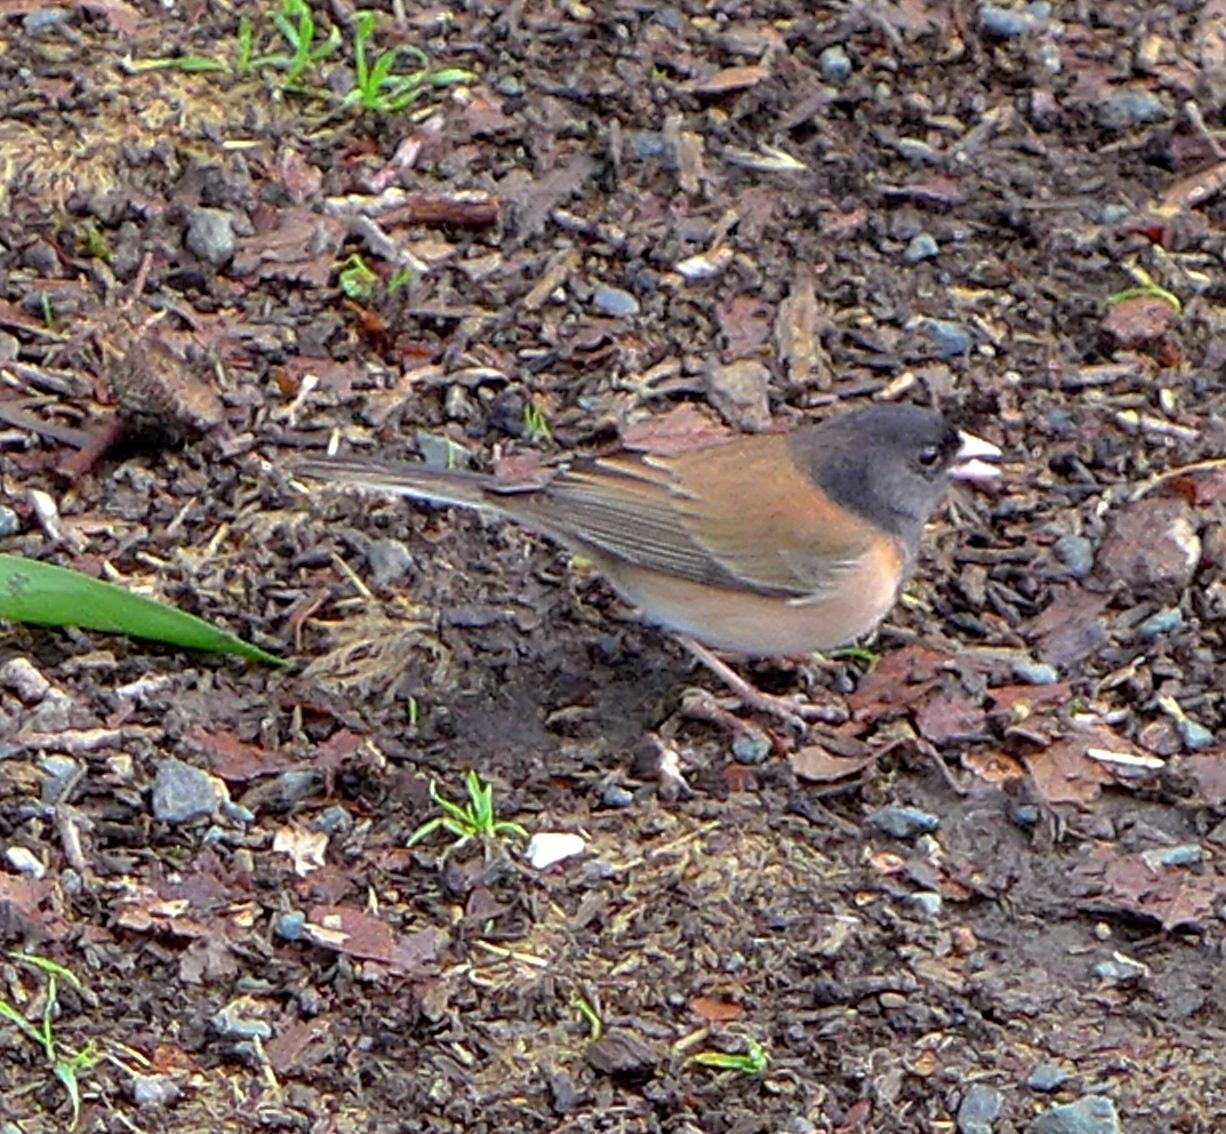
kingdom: Animalia
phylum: Chordata
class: Aves
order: Passeriformes
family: Passerellidae
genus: Junco
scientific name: Junco hyemalis
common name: Dark-eyed junco
